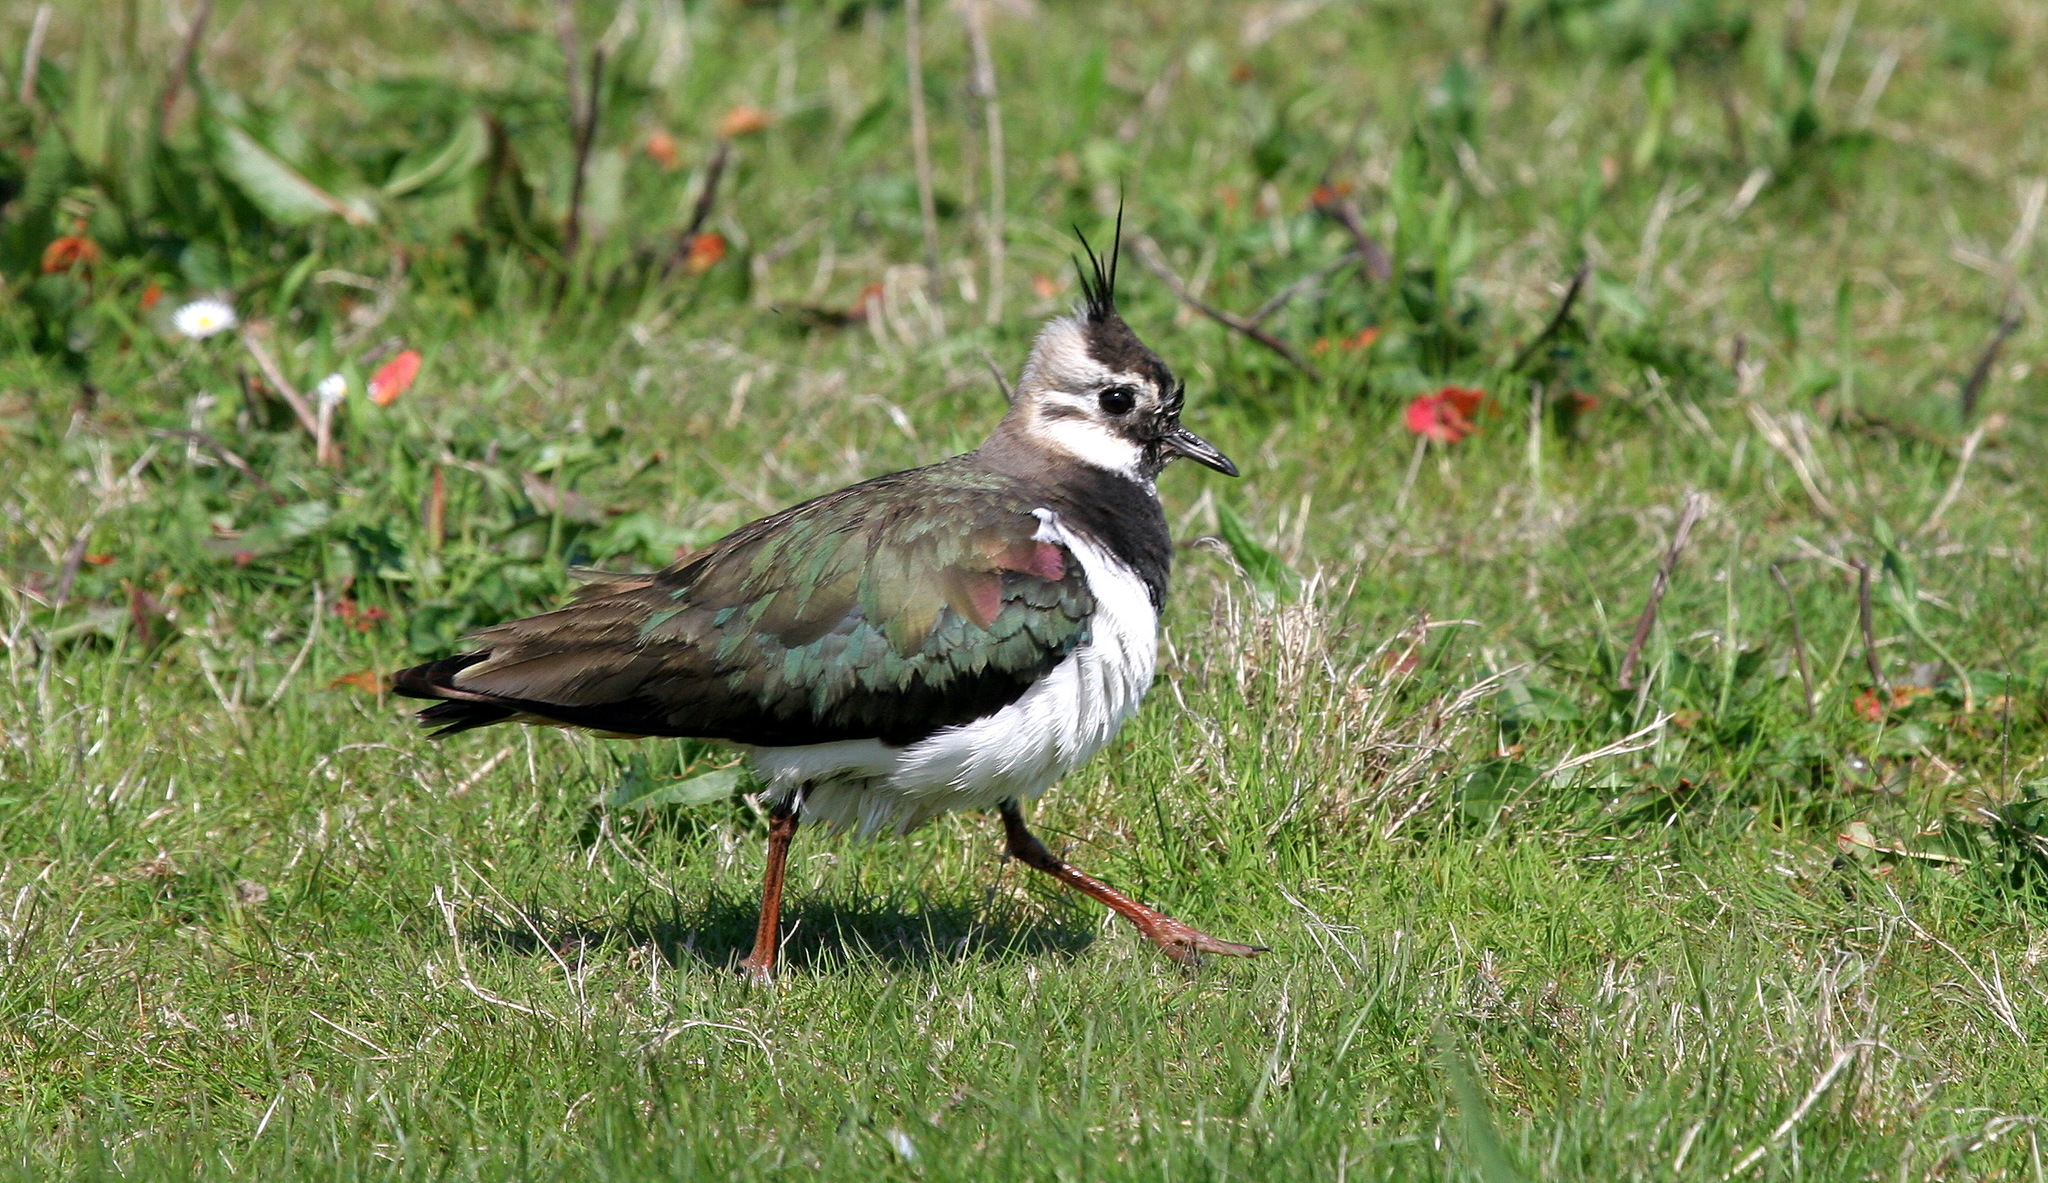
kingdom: Animalia
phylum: Chordata
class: Aves
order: Charadriiformes
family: Charadriidae
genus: Vanellus
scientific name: Vanellus vanellus
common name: Northern lapwing
